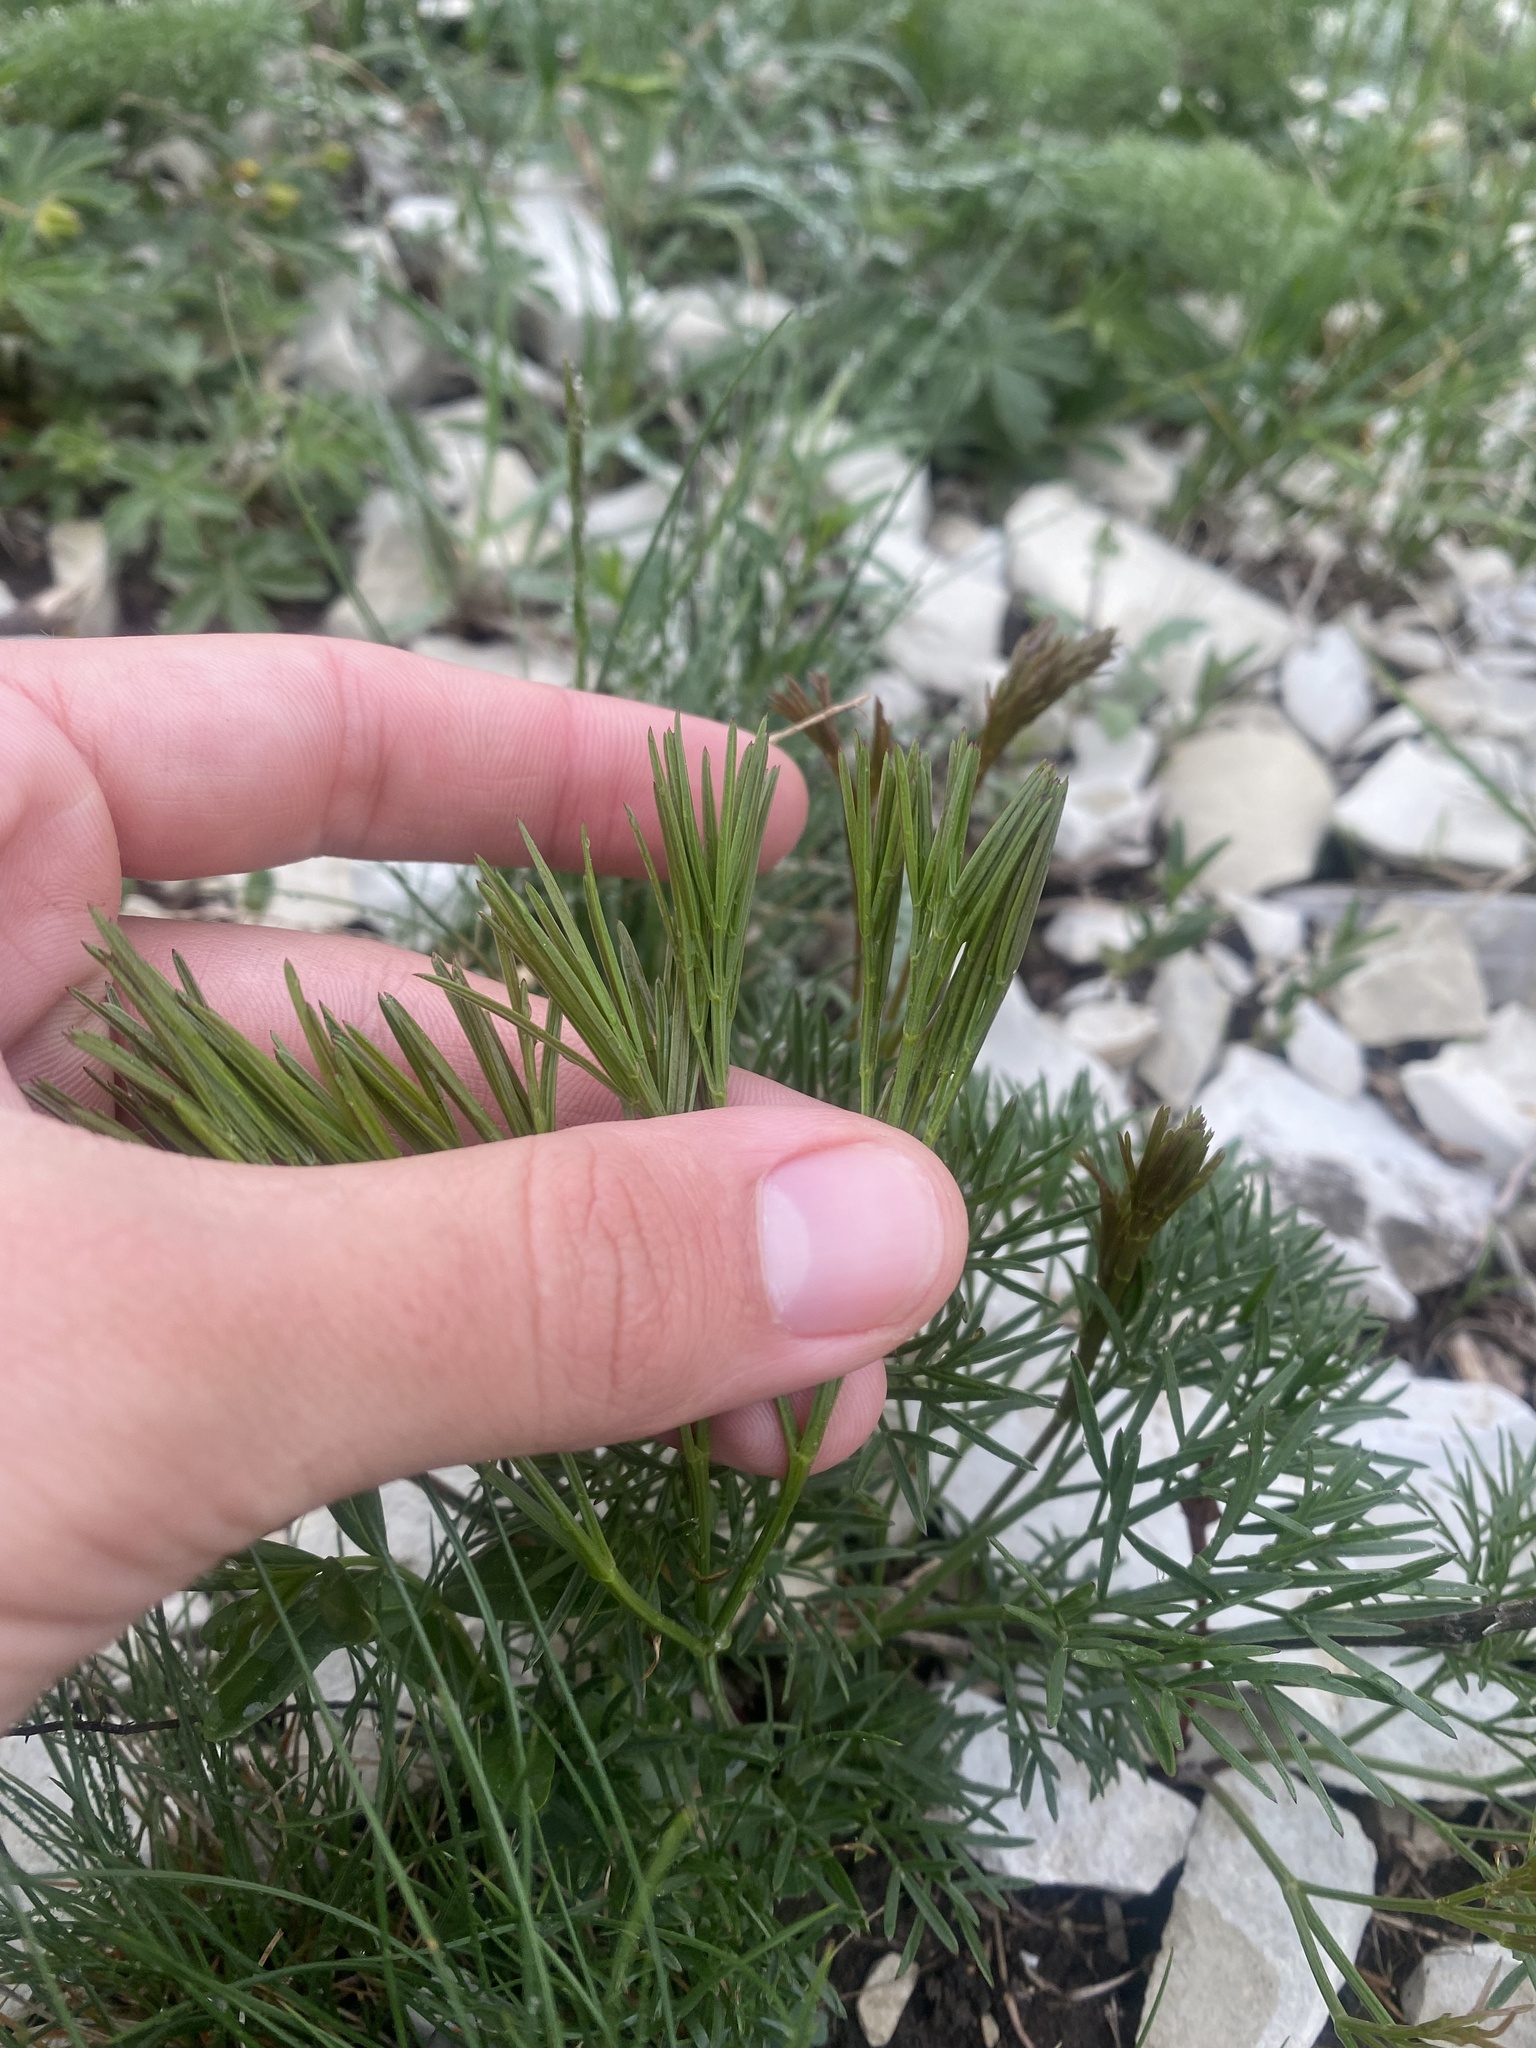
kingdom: Plantae
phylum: Tracheophyta
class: Magnoliopsida
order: Apiales
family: Apiaceae
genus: Seseli
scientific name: Seseli campestre
